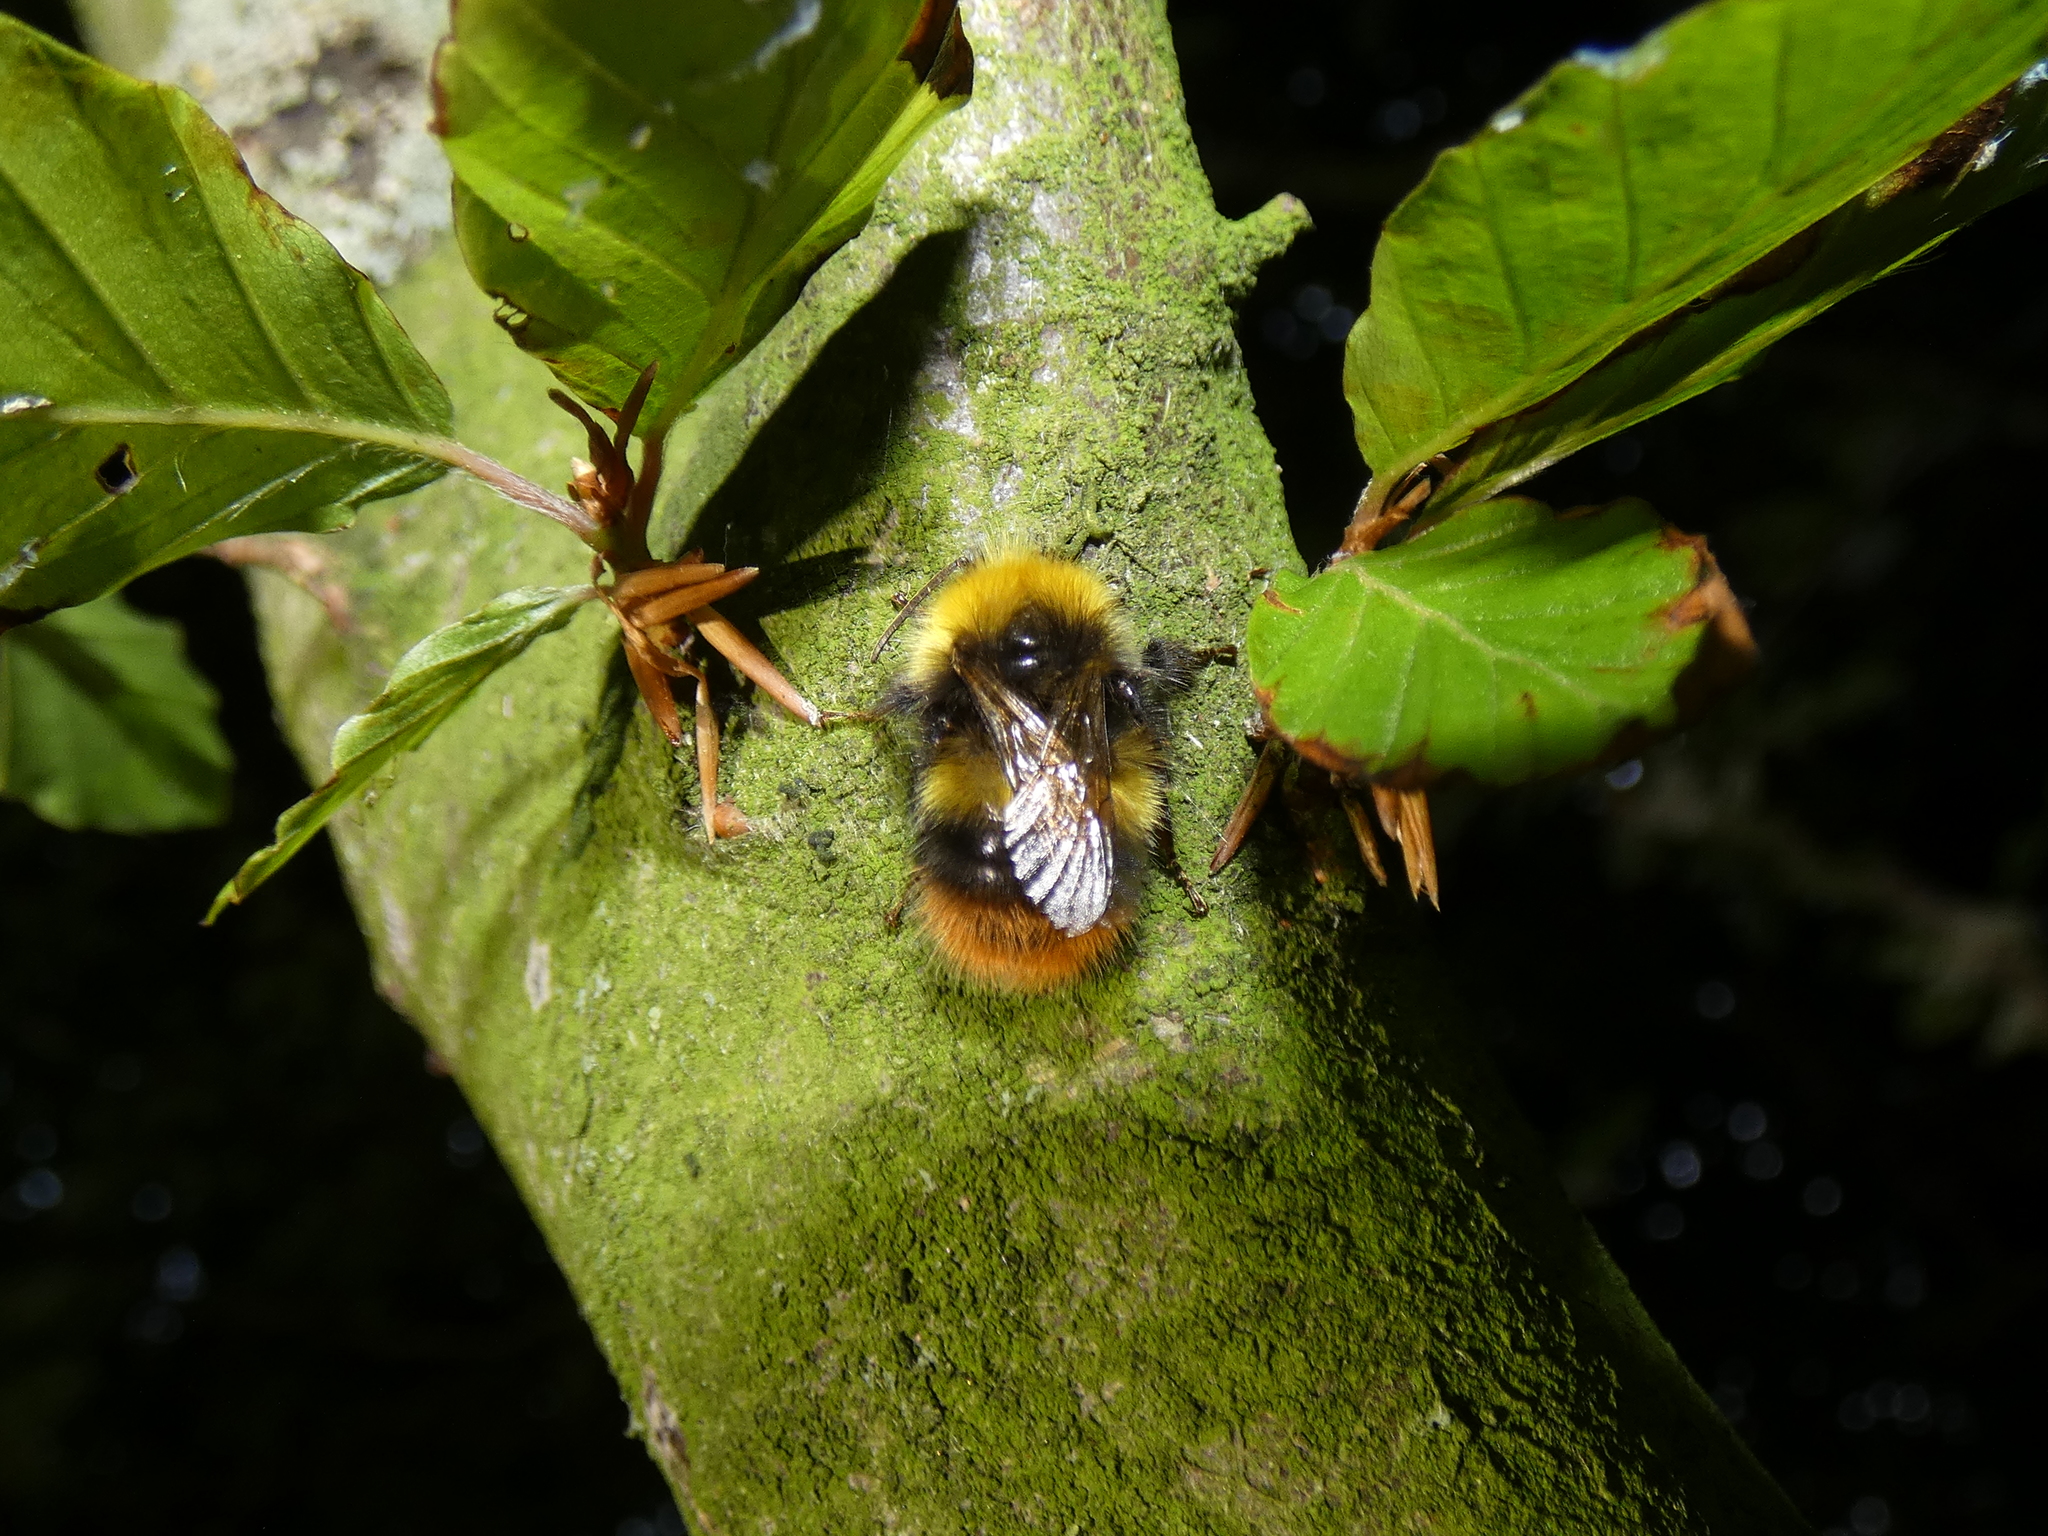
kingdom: Animalia
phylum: Arthropoda
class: Insecta
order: Hymenoptera
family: Apidae
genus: Bombus
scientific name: Bombus pratorum
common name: Early humble-bee
